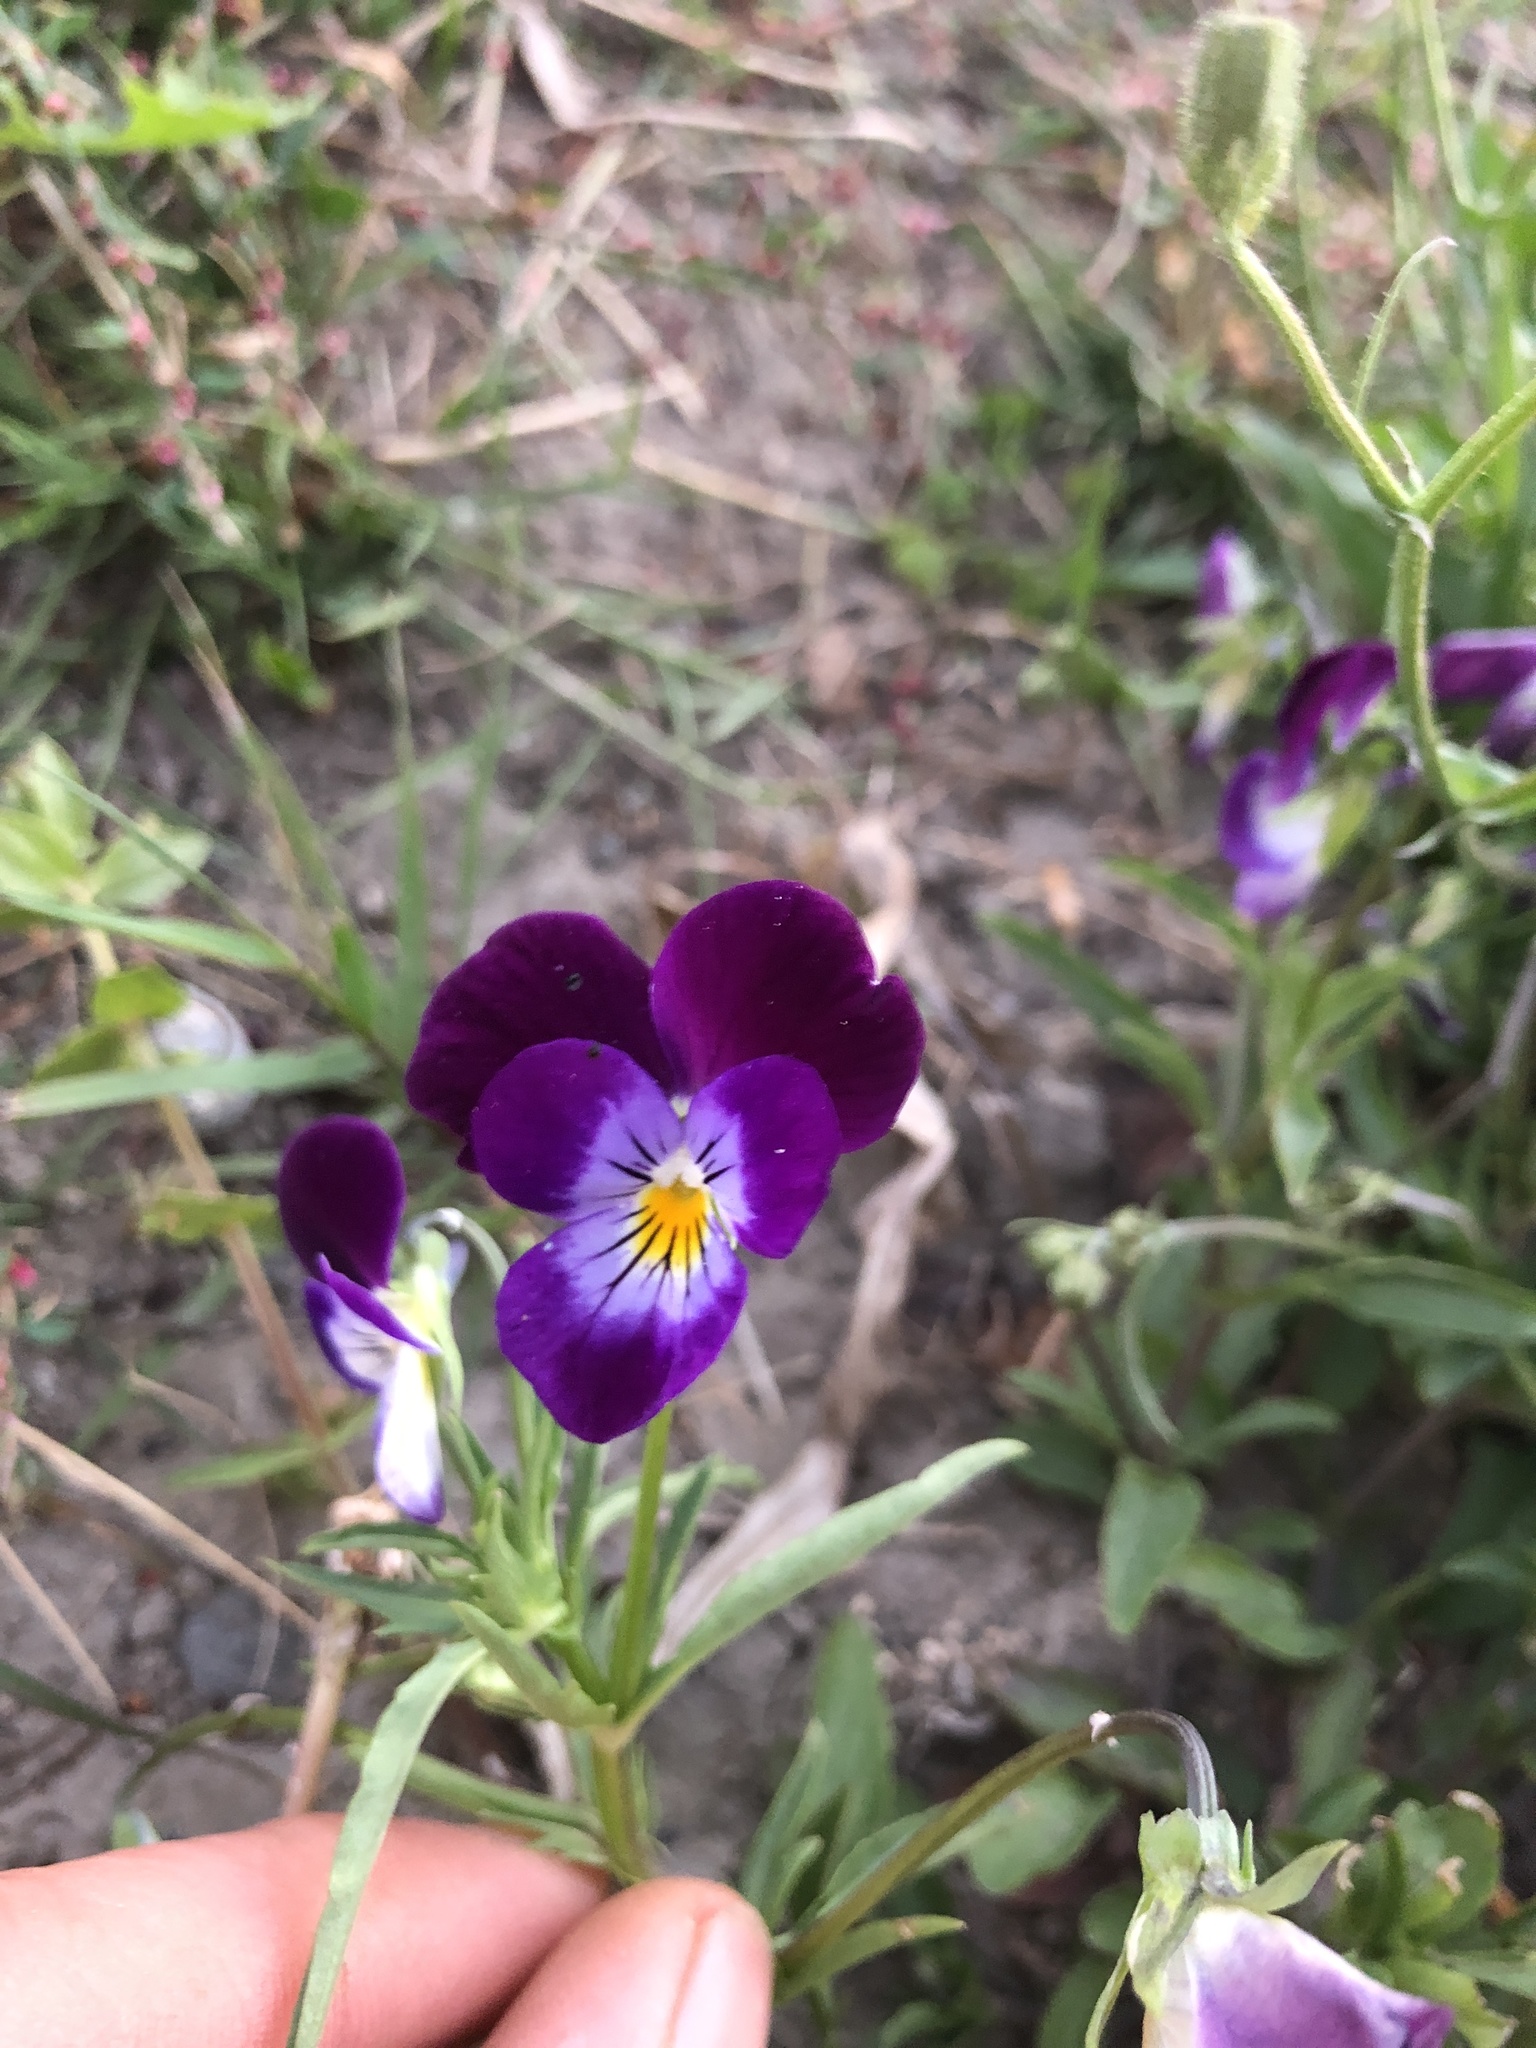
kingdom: Plantae
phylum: Tracheophyta
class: Magnoliopsida
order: Malpighiales
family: Violaceae
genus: Viola
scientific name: Viola wittrockiana
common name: Garden pansy
